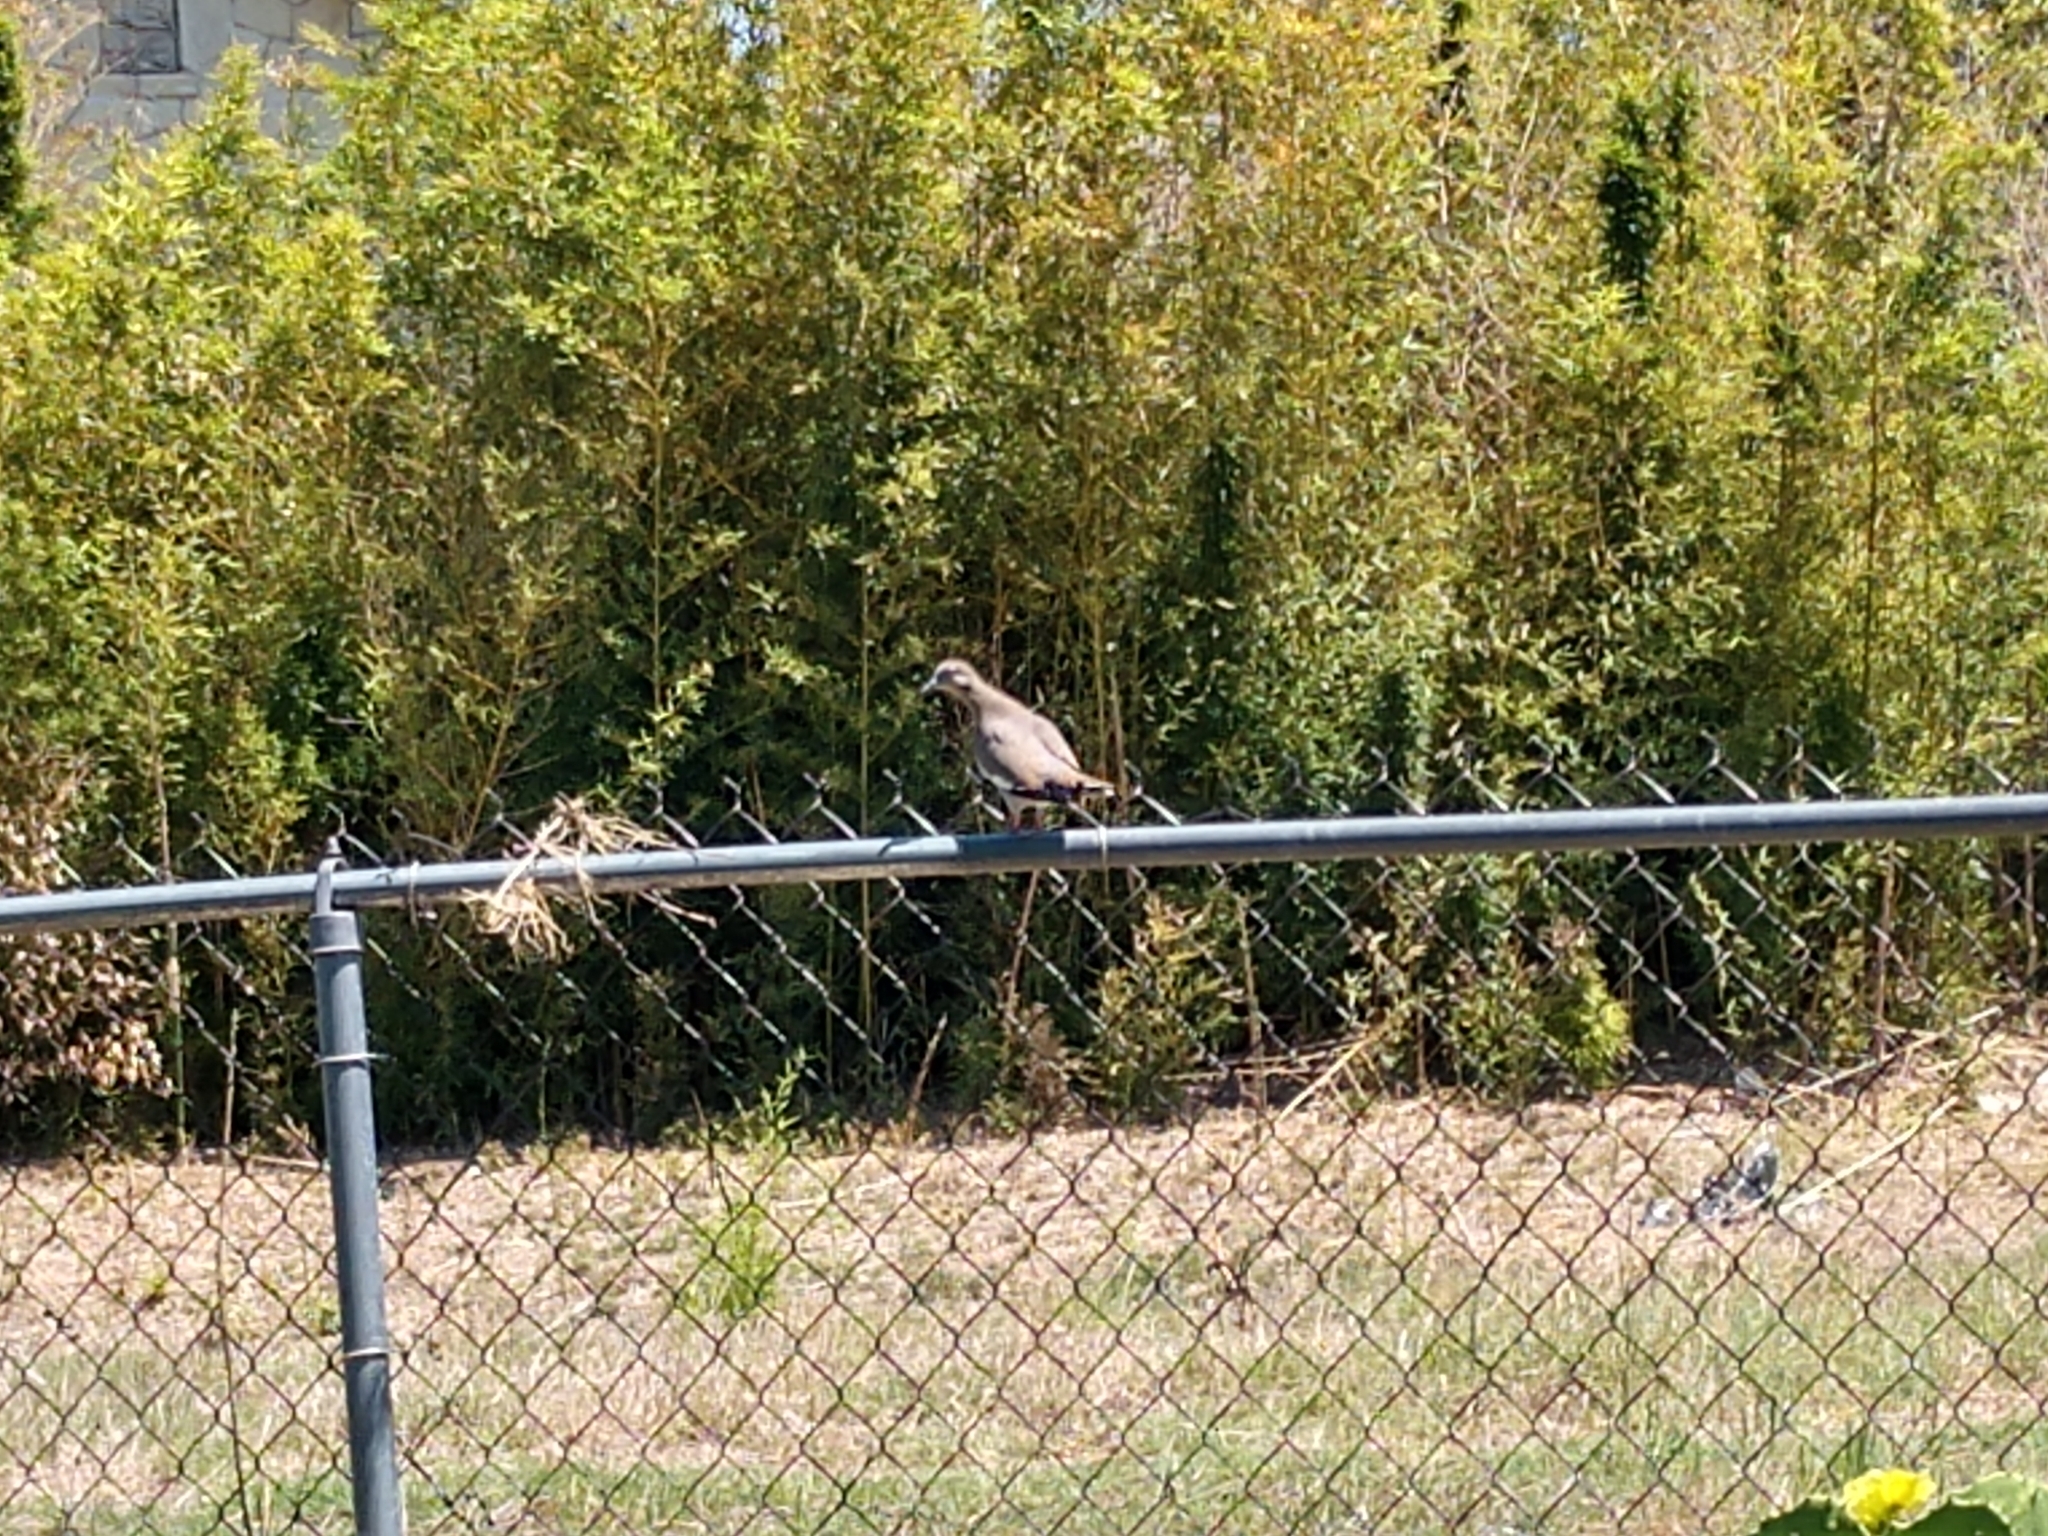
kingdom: Animalia
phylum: Chordata
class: Aves
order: Columbiformes
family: Columbidae
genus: Zenaida
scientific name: Zenaida asiatica
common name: White-winged dove
